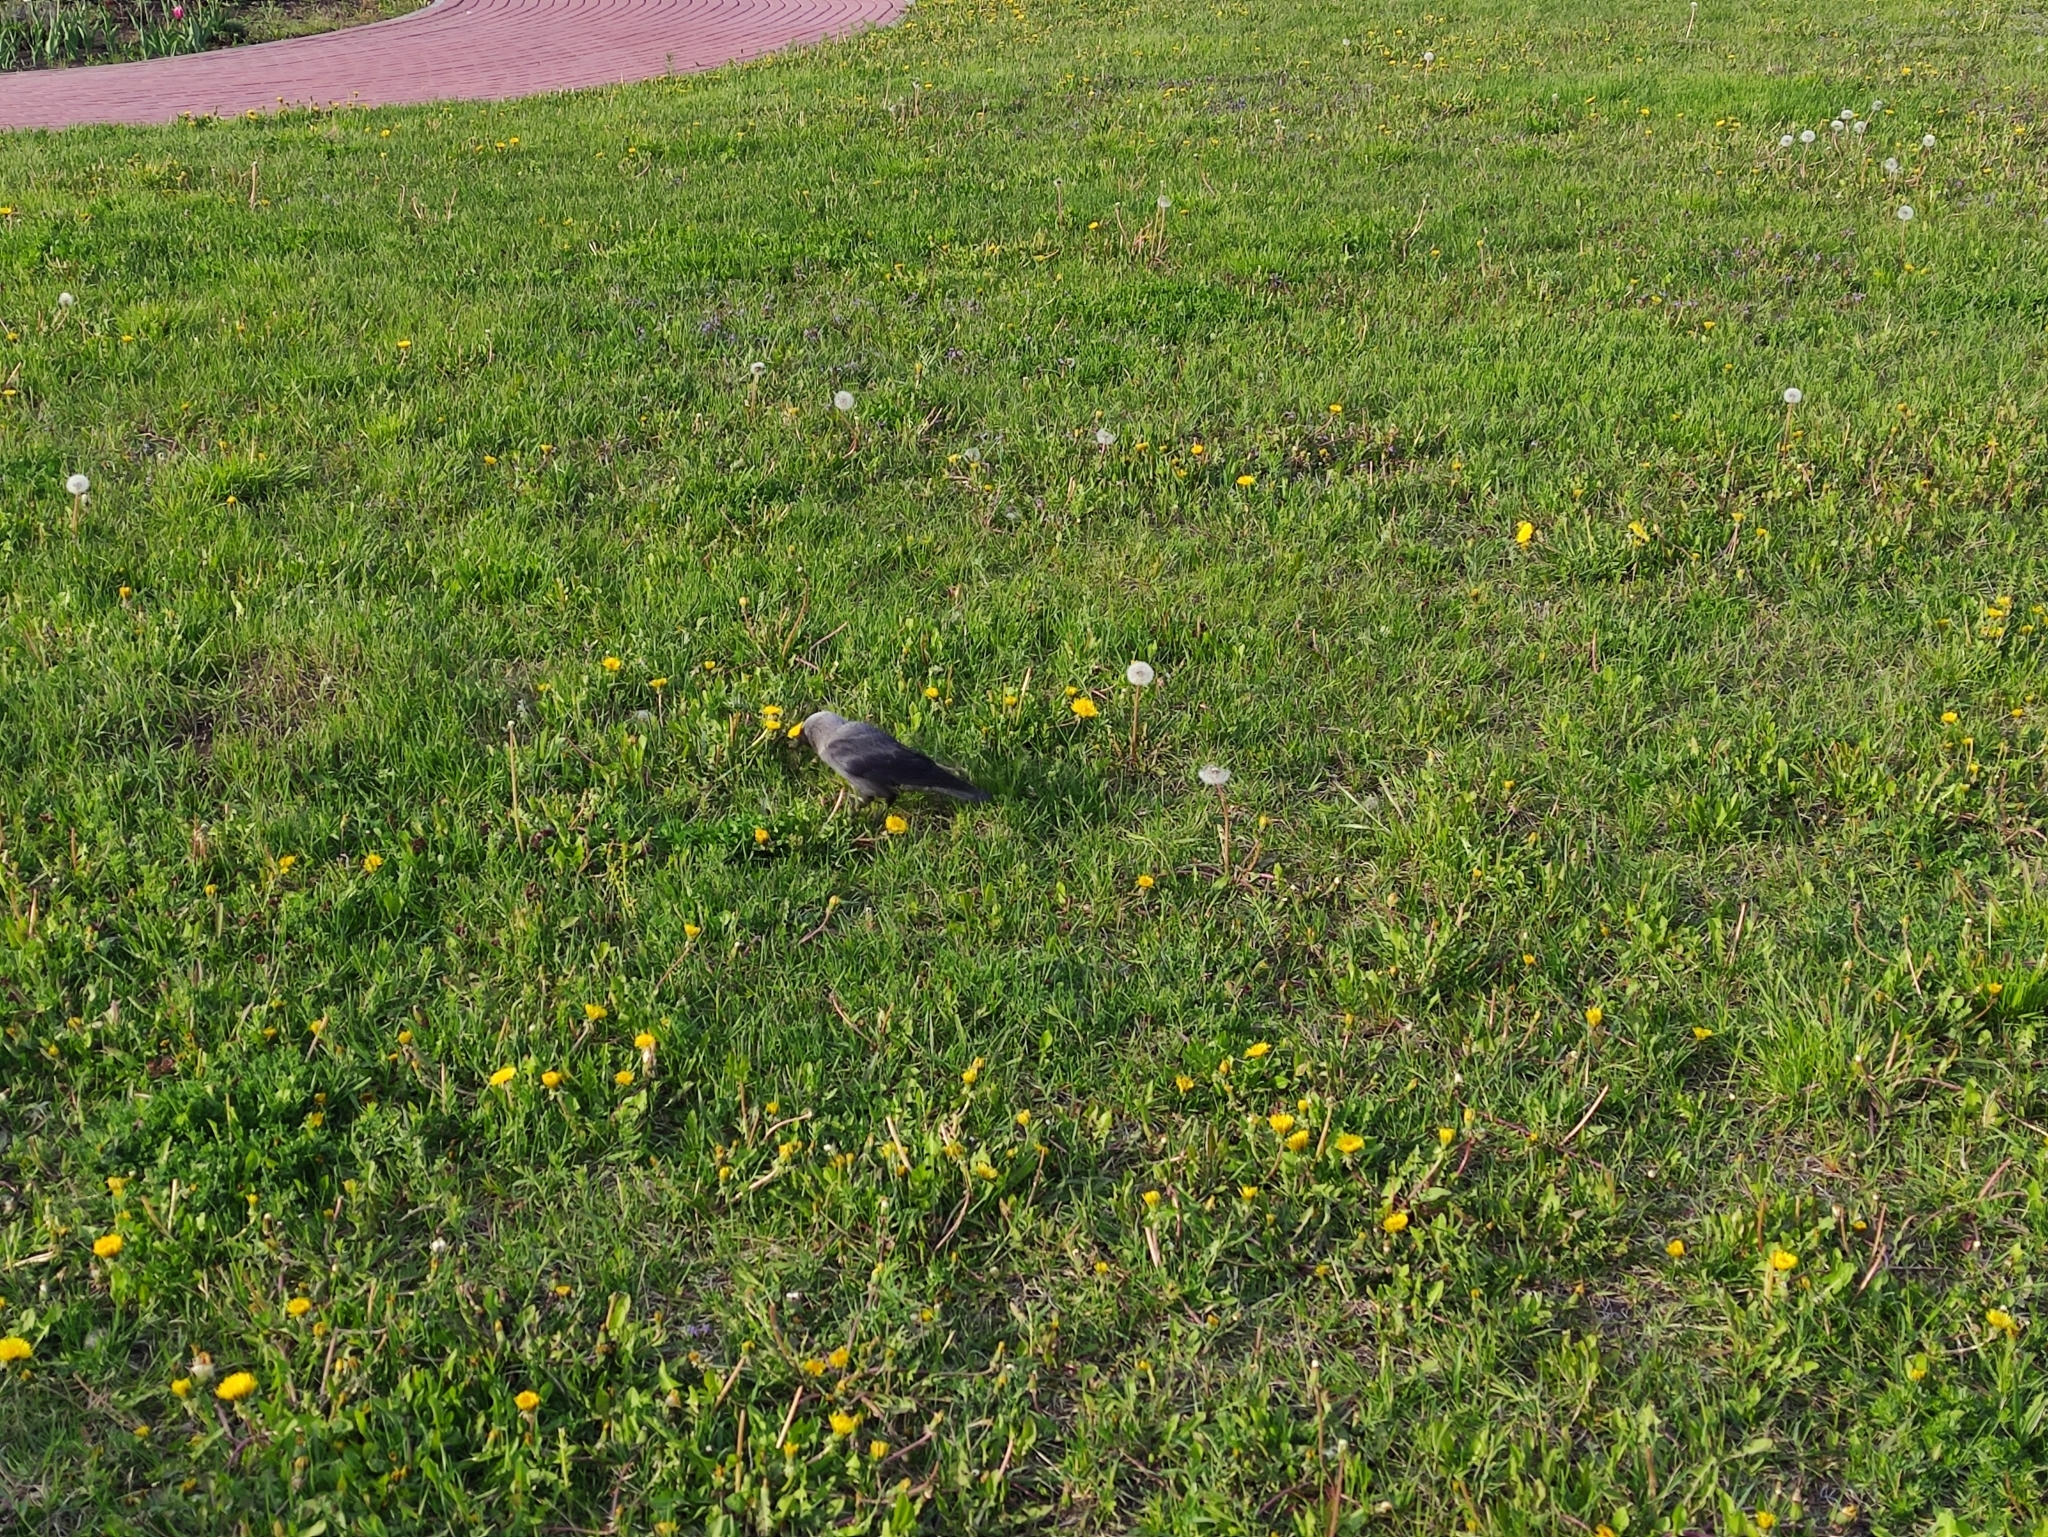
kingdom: Animalia
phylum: Chordata
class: Aves
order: Passeriformes
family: Corvidae
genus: Coloeus
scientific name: Coloeus monedula
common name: Western jackdaw
